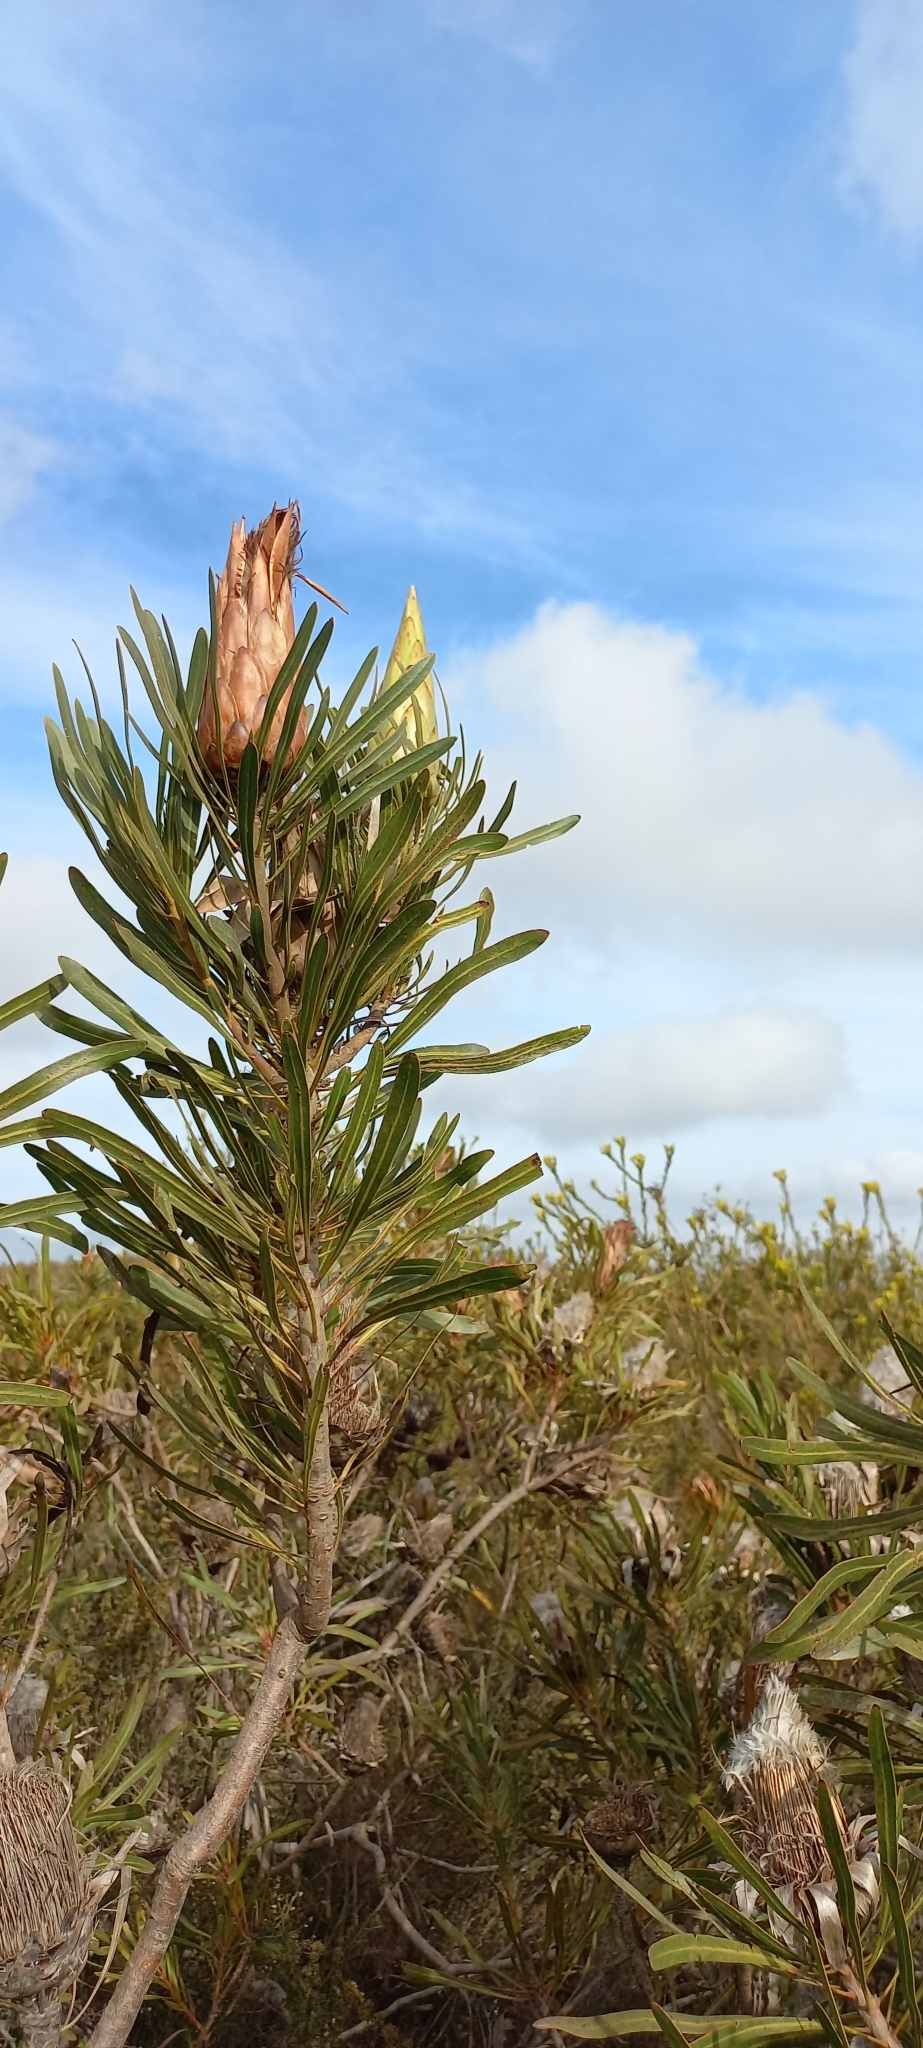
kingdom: Plantae
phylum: Tracheophyta
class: Magnoliopsida
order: Proteales
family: Proteaceae
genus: Protea
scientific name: Protea longifolia
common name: Long-leaf sugarbush
